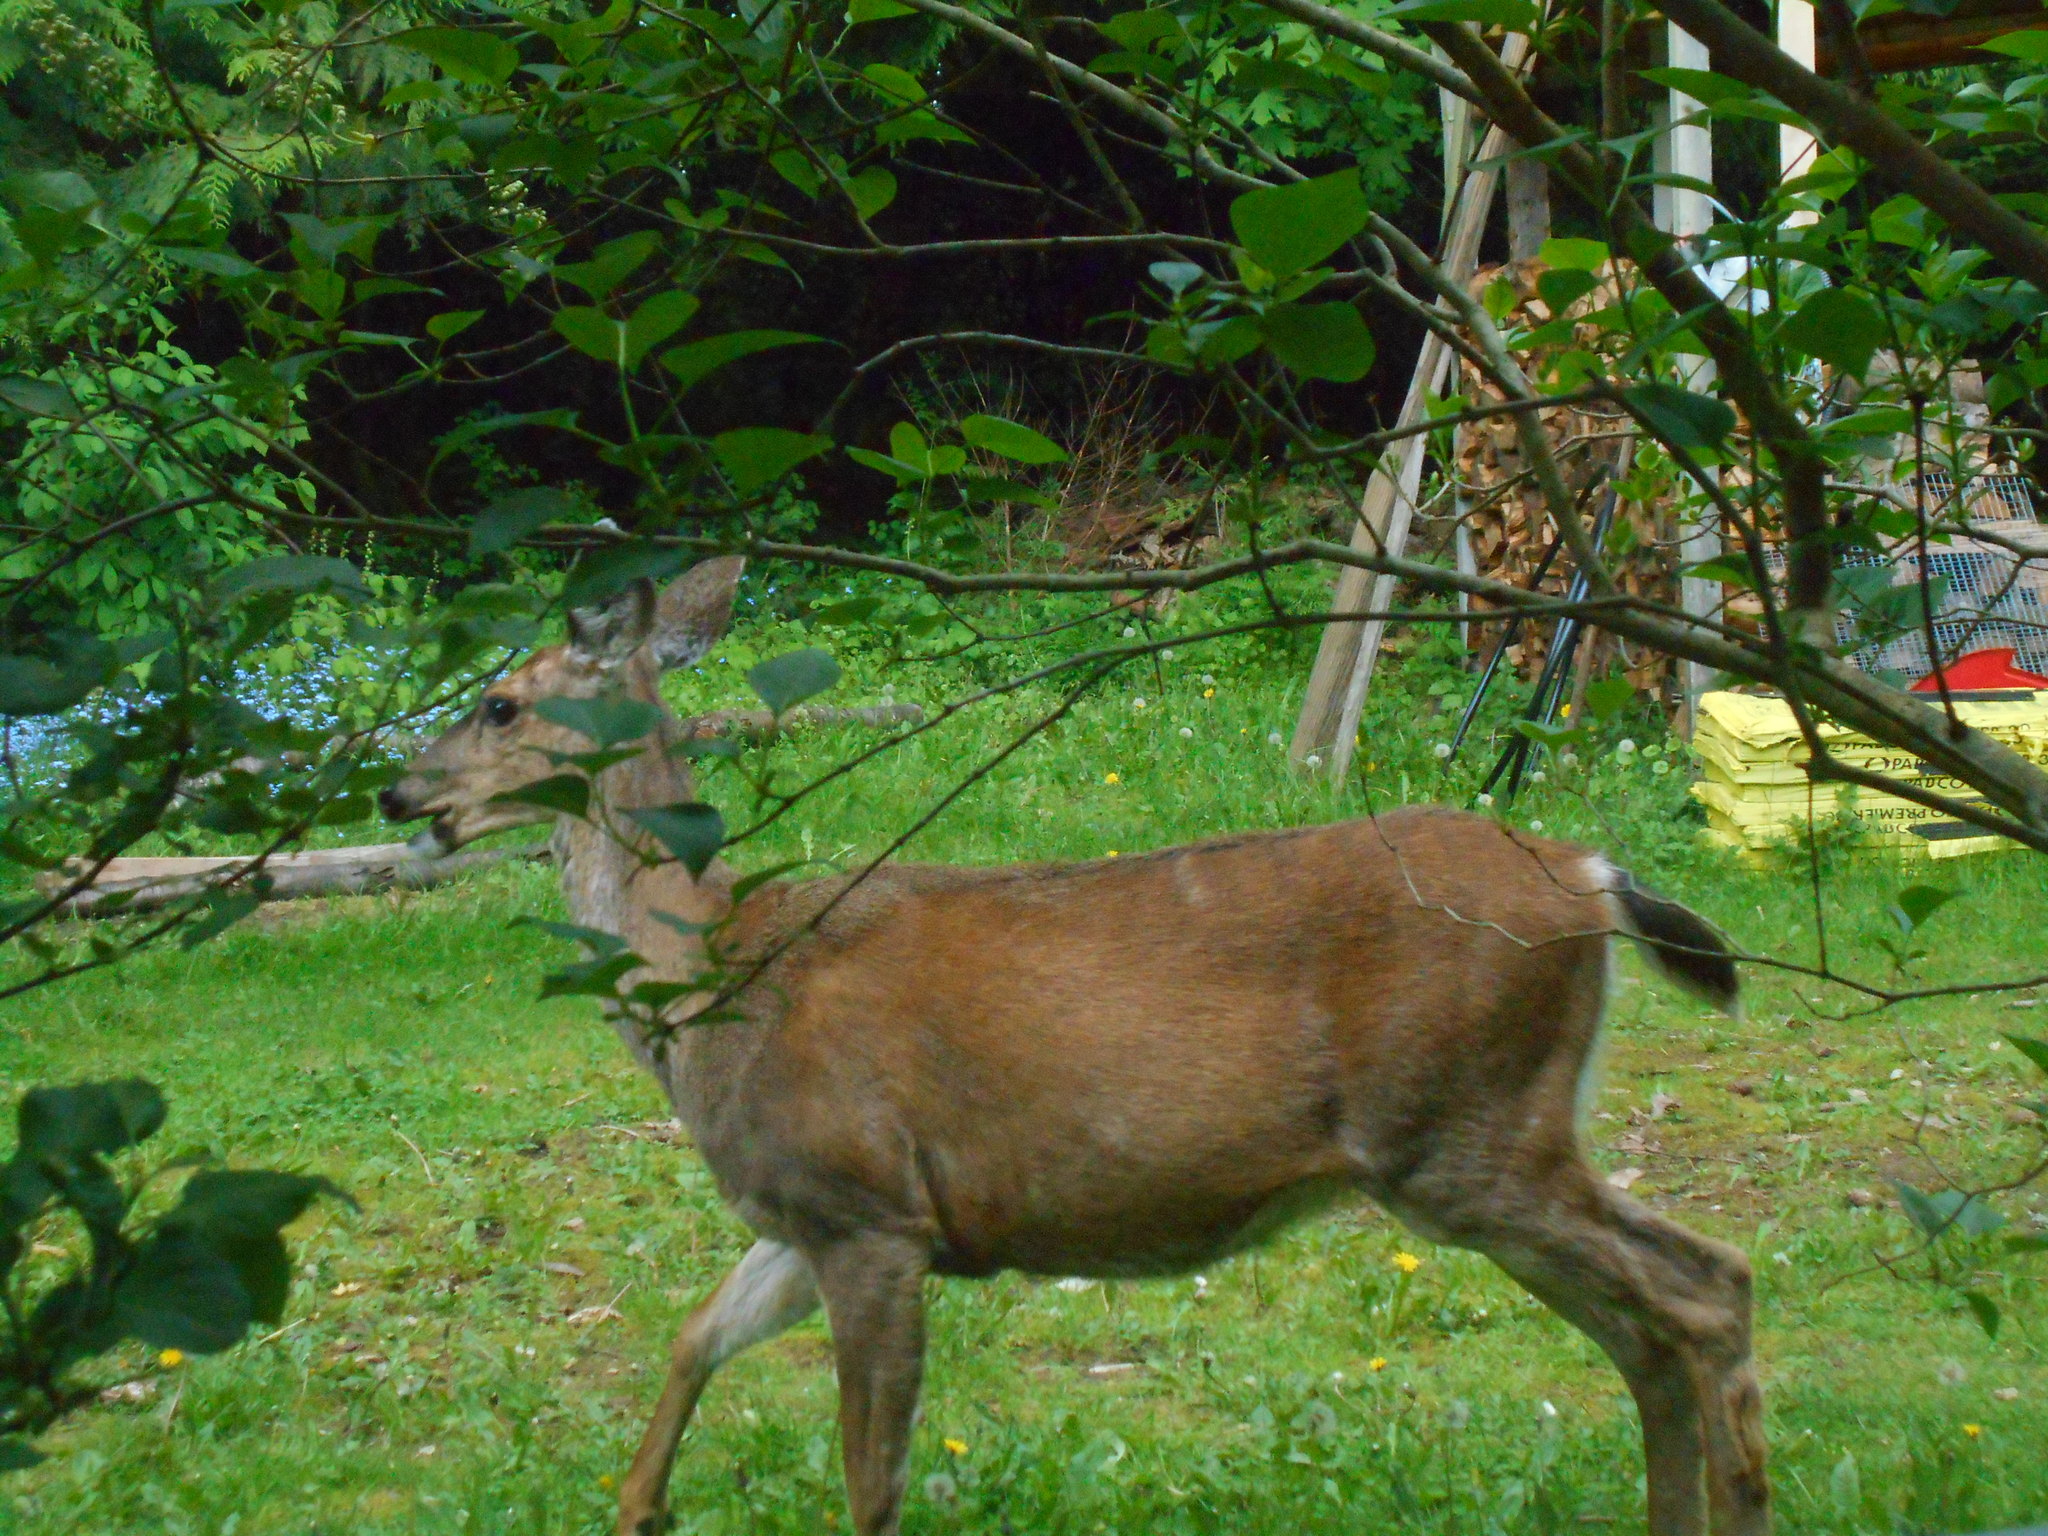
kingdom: Animalia
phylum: Chordata
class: Mammalia
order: Artiodactyla
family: Cervidae
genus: Odocoileus
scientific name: Odocoileus hemionus
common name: Mule deer
